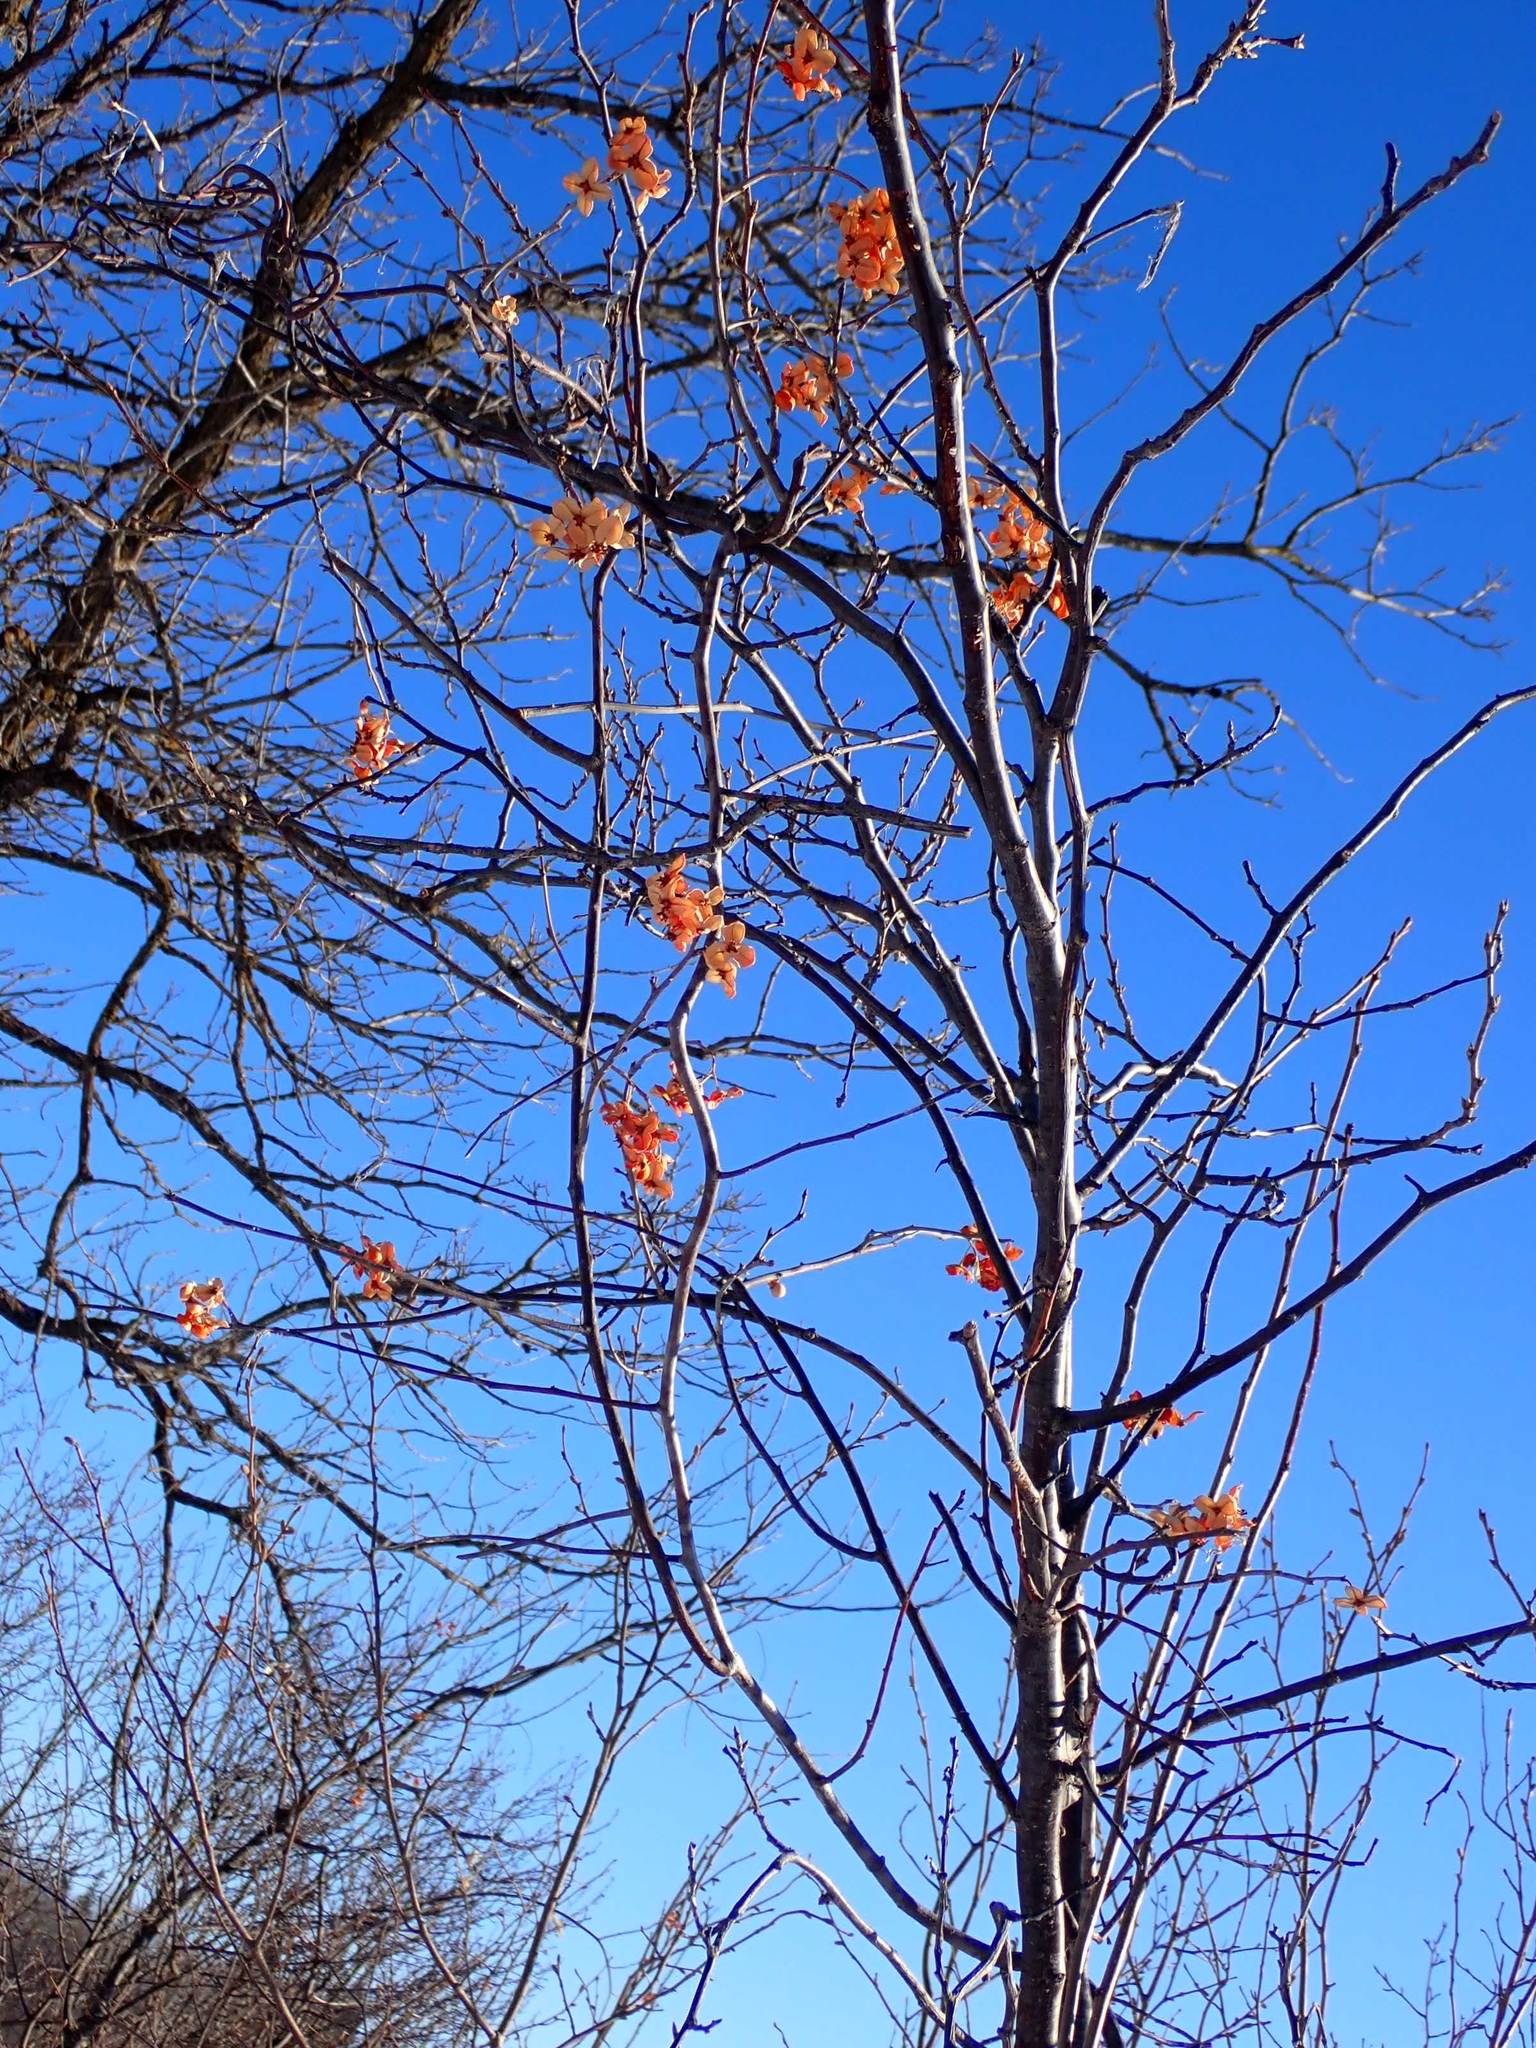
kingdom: Plantae
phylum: Tracheophyta
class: Magnoliopsida
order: Celastrales
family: Celastraceae
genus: Celastrus
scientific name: Celastrus scandens
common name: American bittersweet
